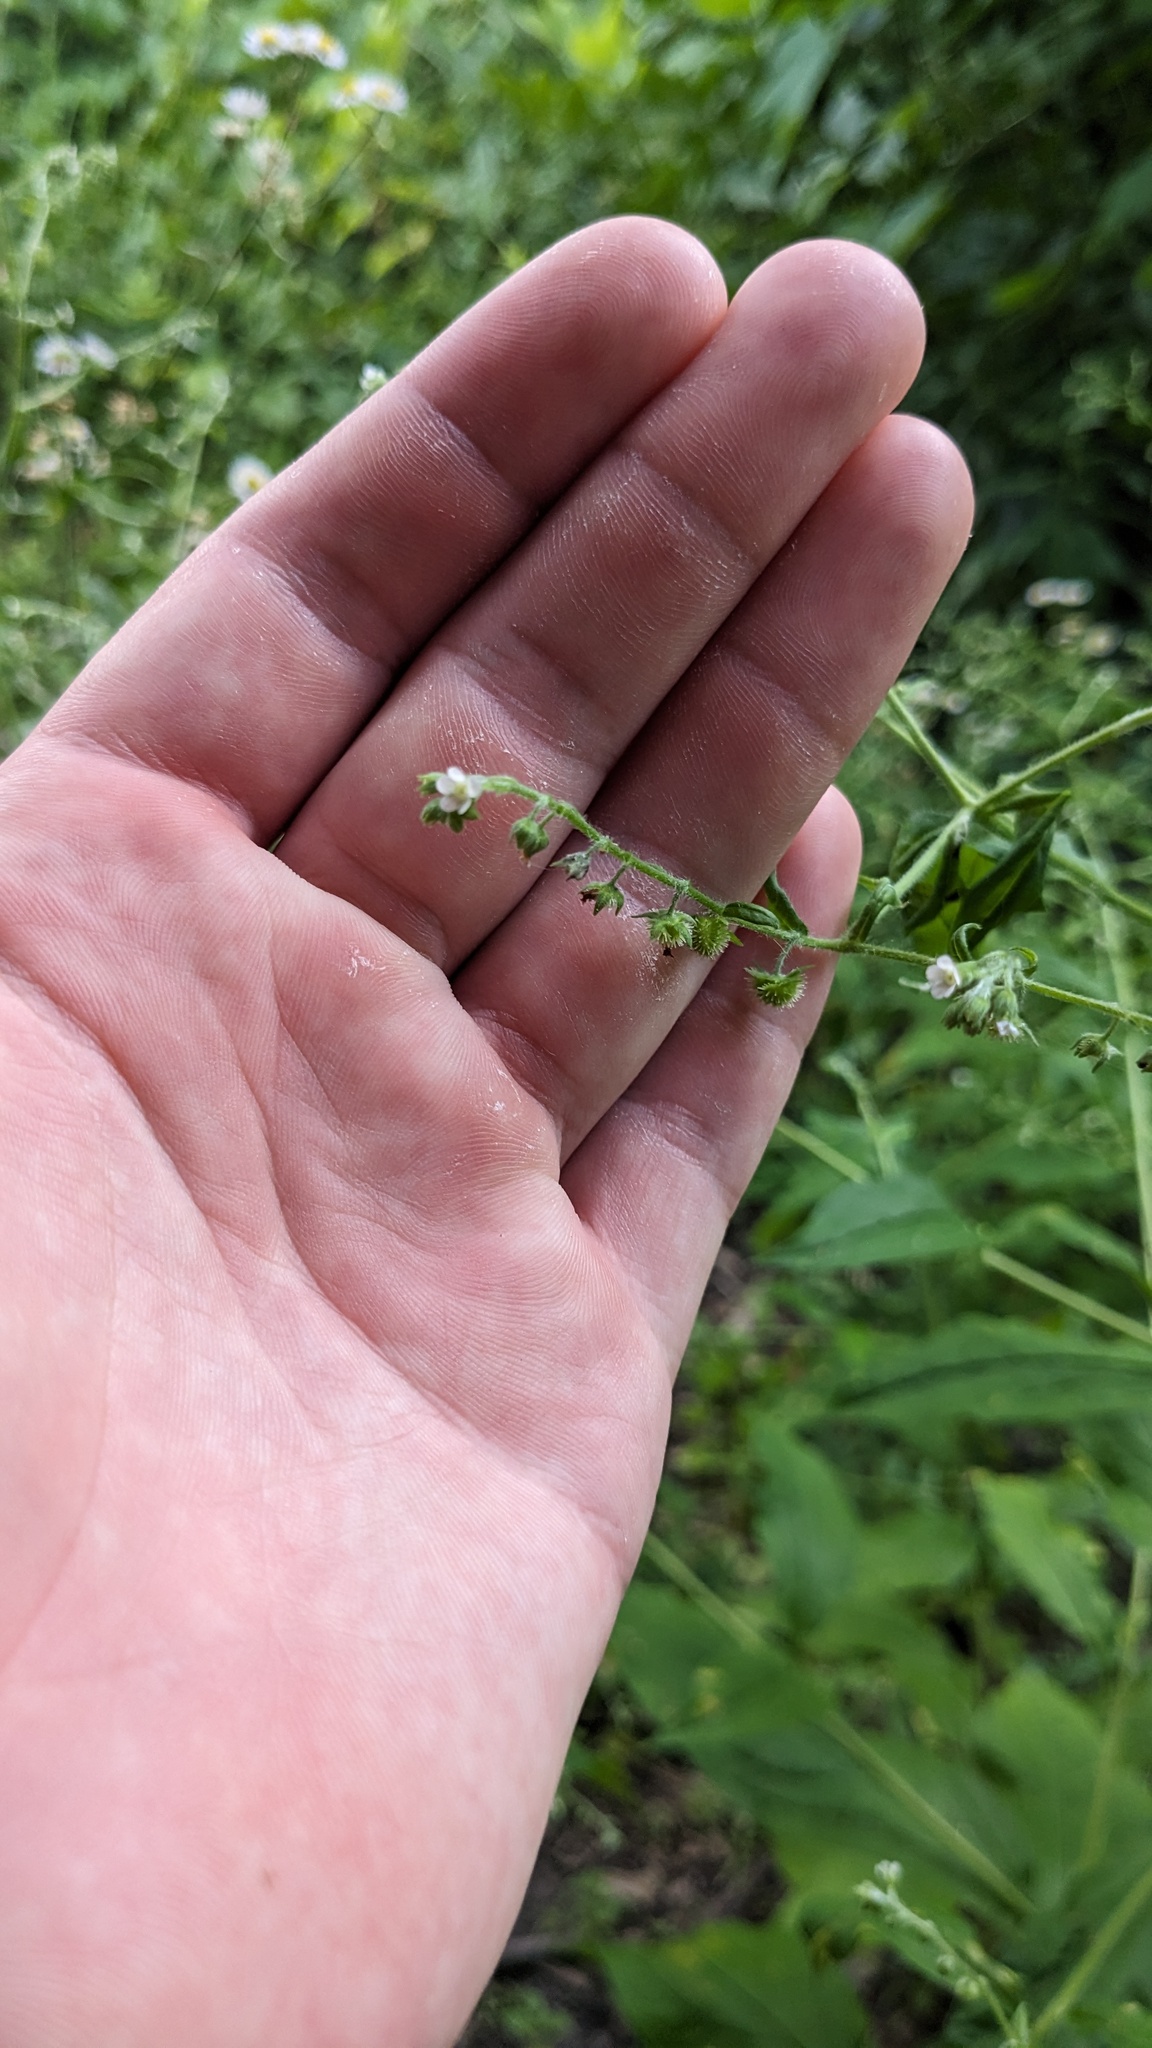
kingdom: Plantae
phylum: Tracheophyta
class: Magnoliopsida
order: Boraginales
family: Boraginaceae
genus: Hackelia
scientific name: Hackelia virginiana
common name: Beggar's-lice
